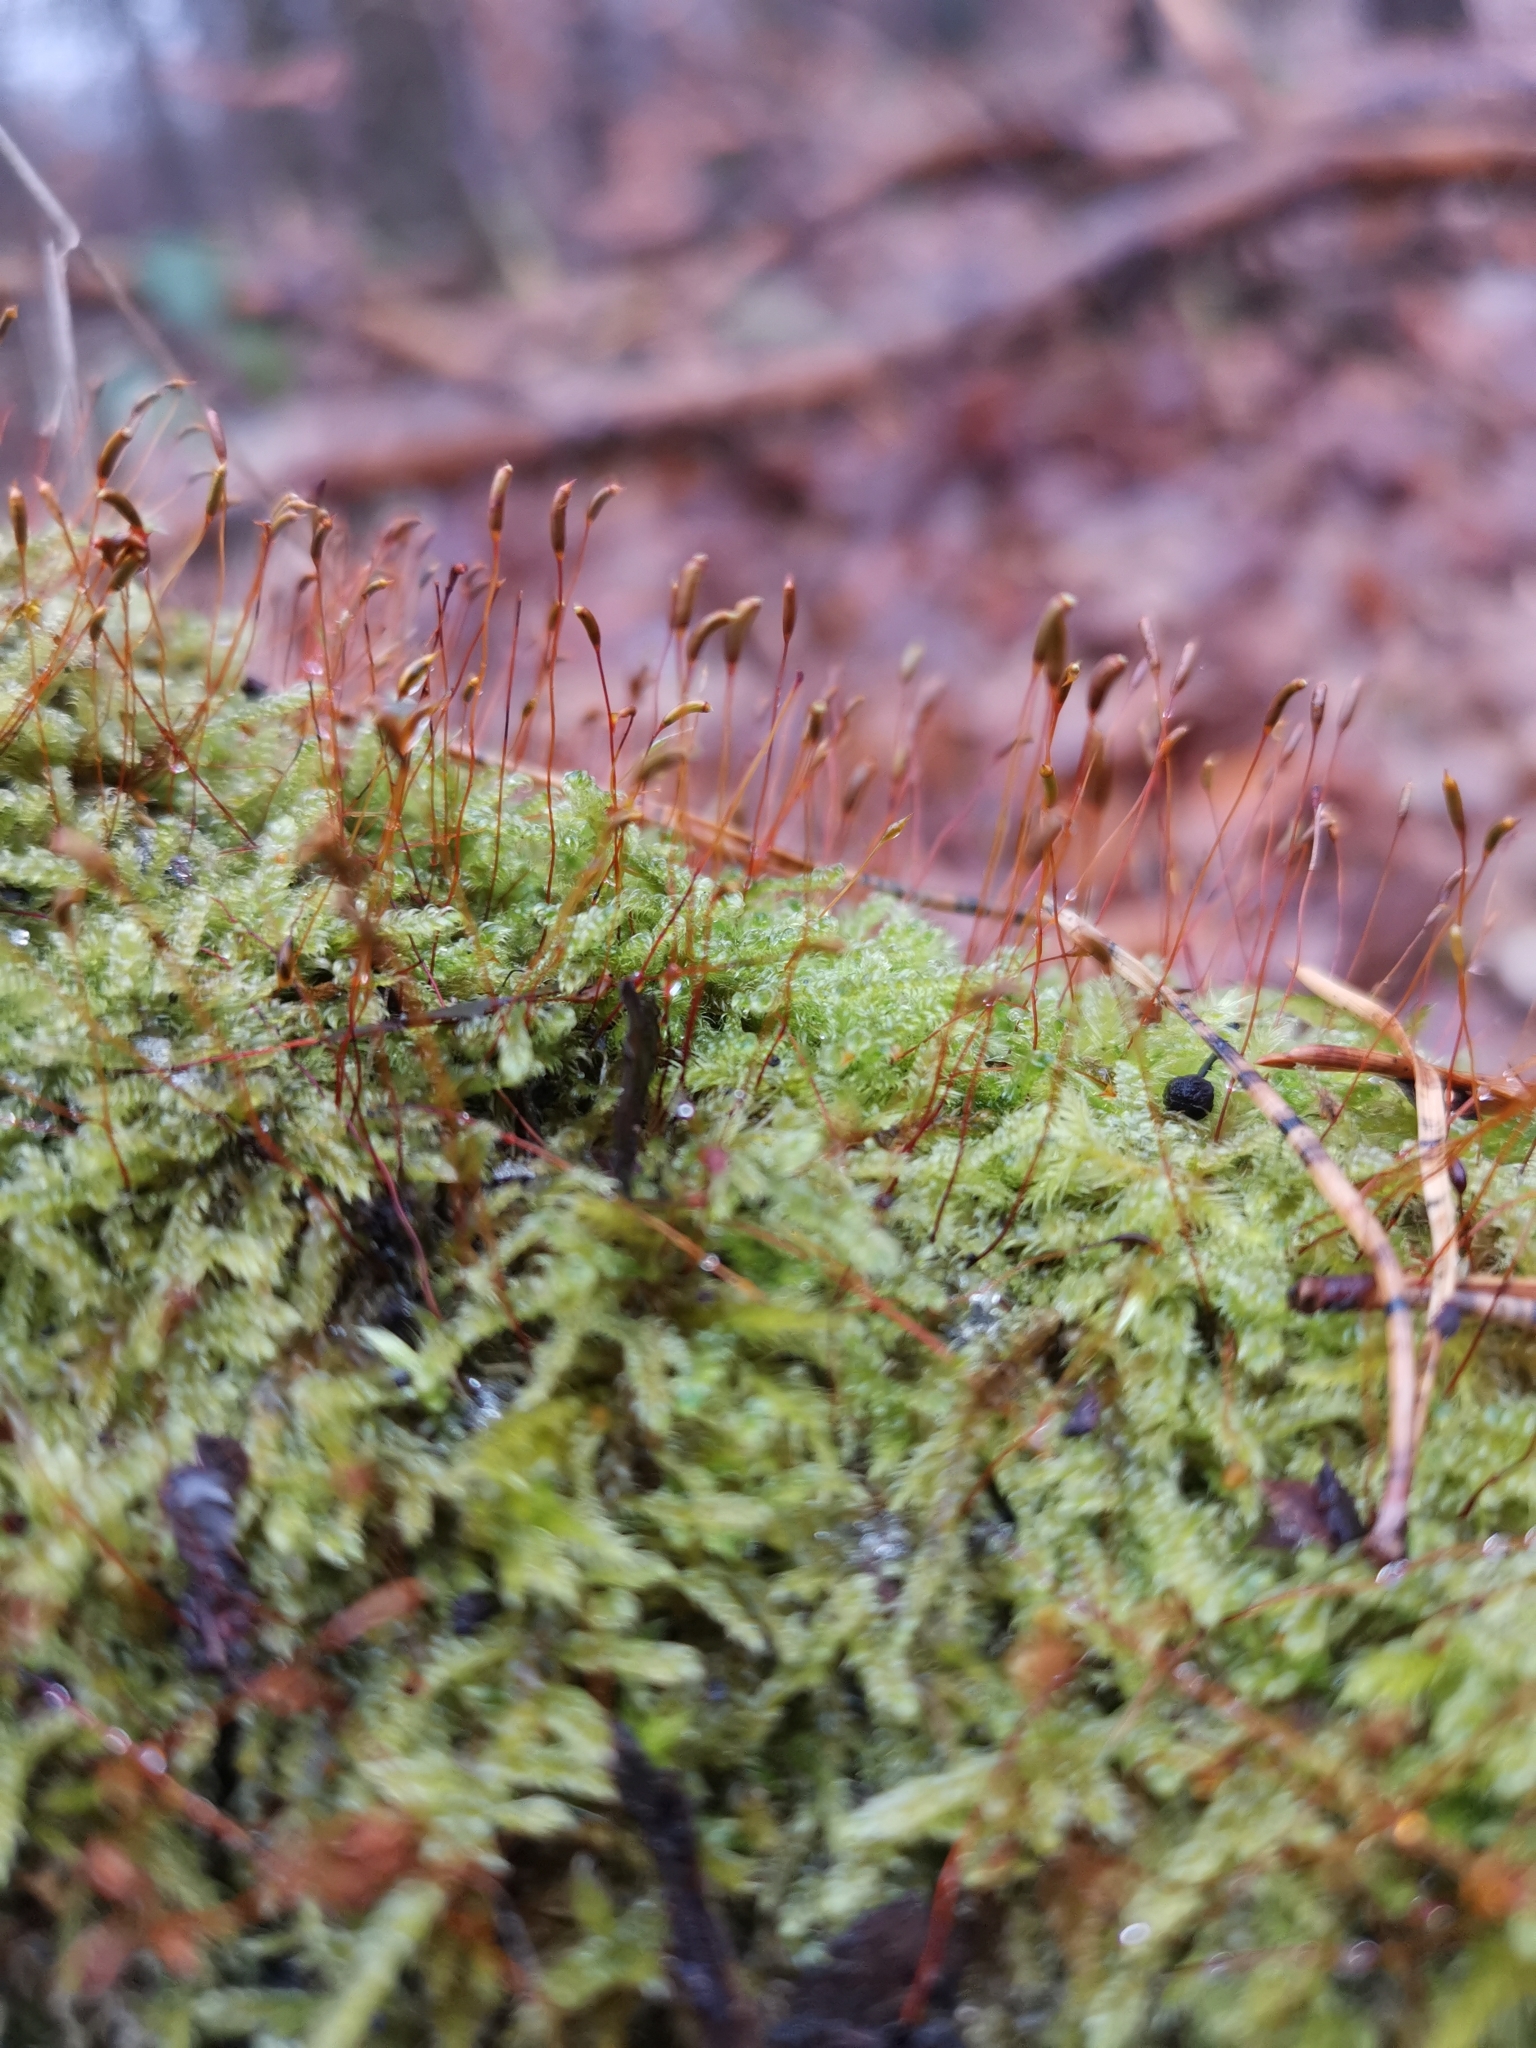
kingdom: Plantae
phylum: Bryophyta
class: Bryopsida
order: Hypnales
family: Hypnaceae
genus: Hypnum
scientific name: Hypnum cupressiforme
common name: Cypress-leaved plait-moss
